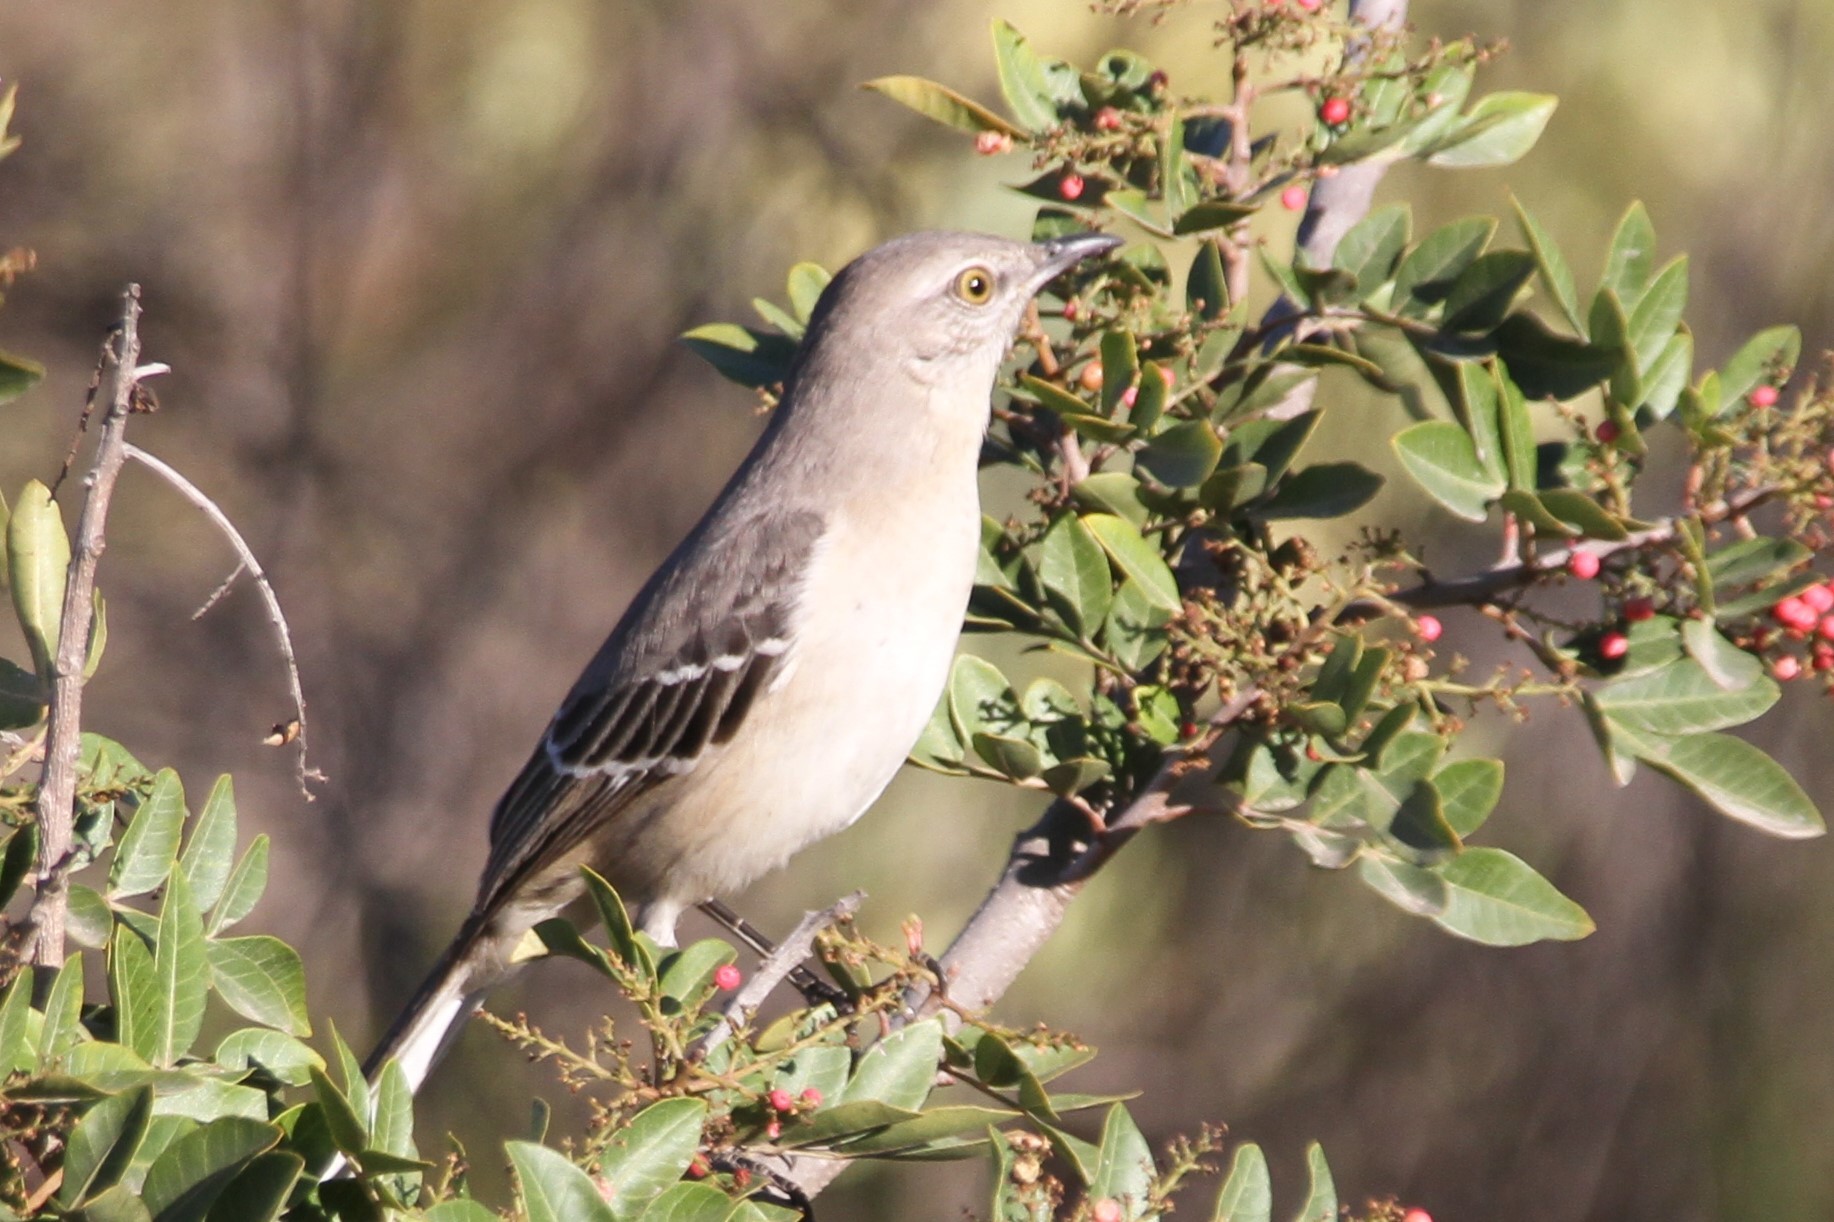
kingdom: Animalia
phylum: Chordata
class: Aves
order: Passeriformes
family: Mimidae
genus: Mimus
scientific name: Mimus polyglottos
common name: Northern mockingbird
